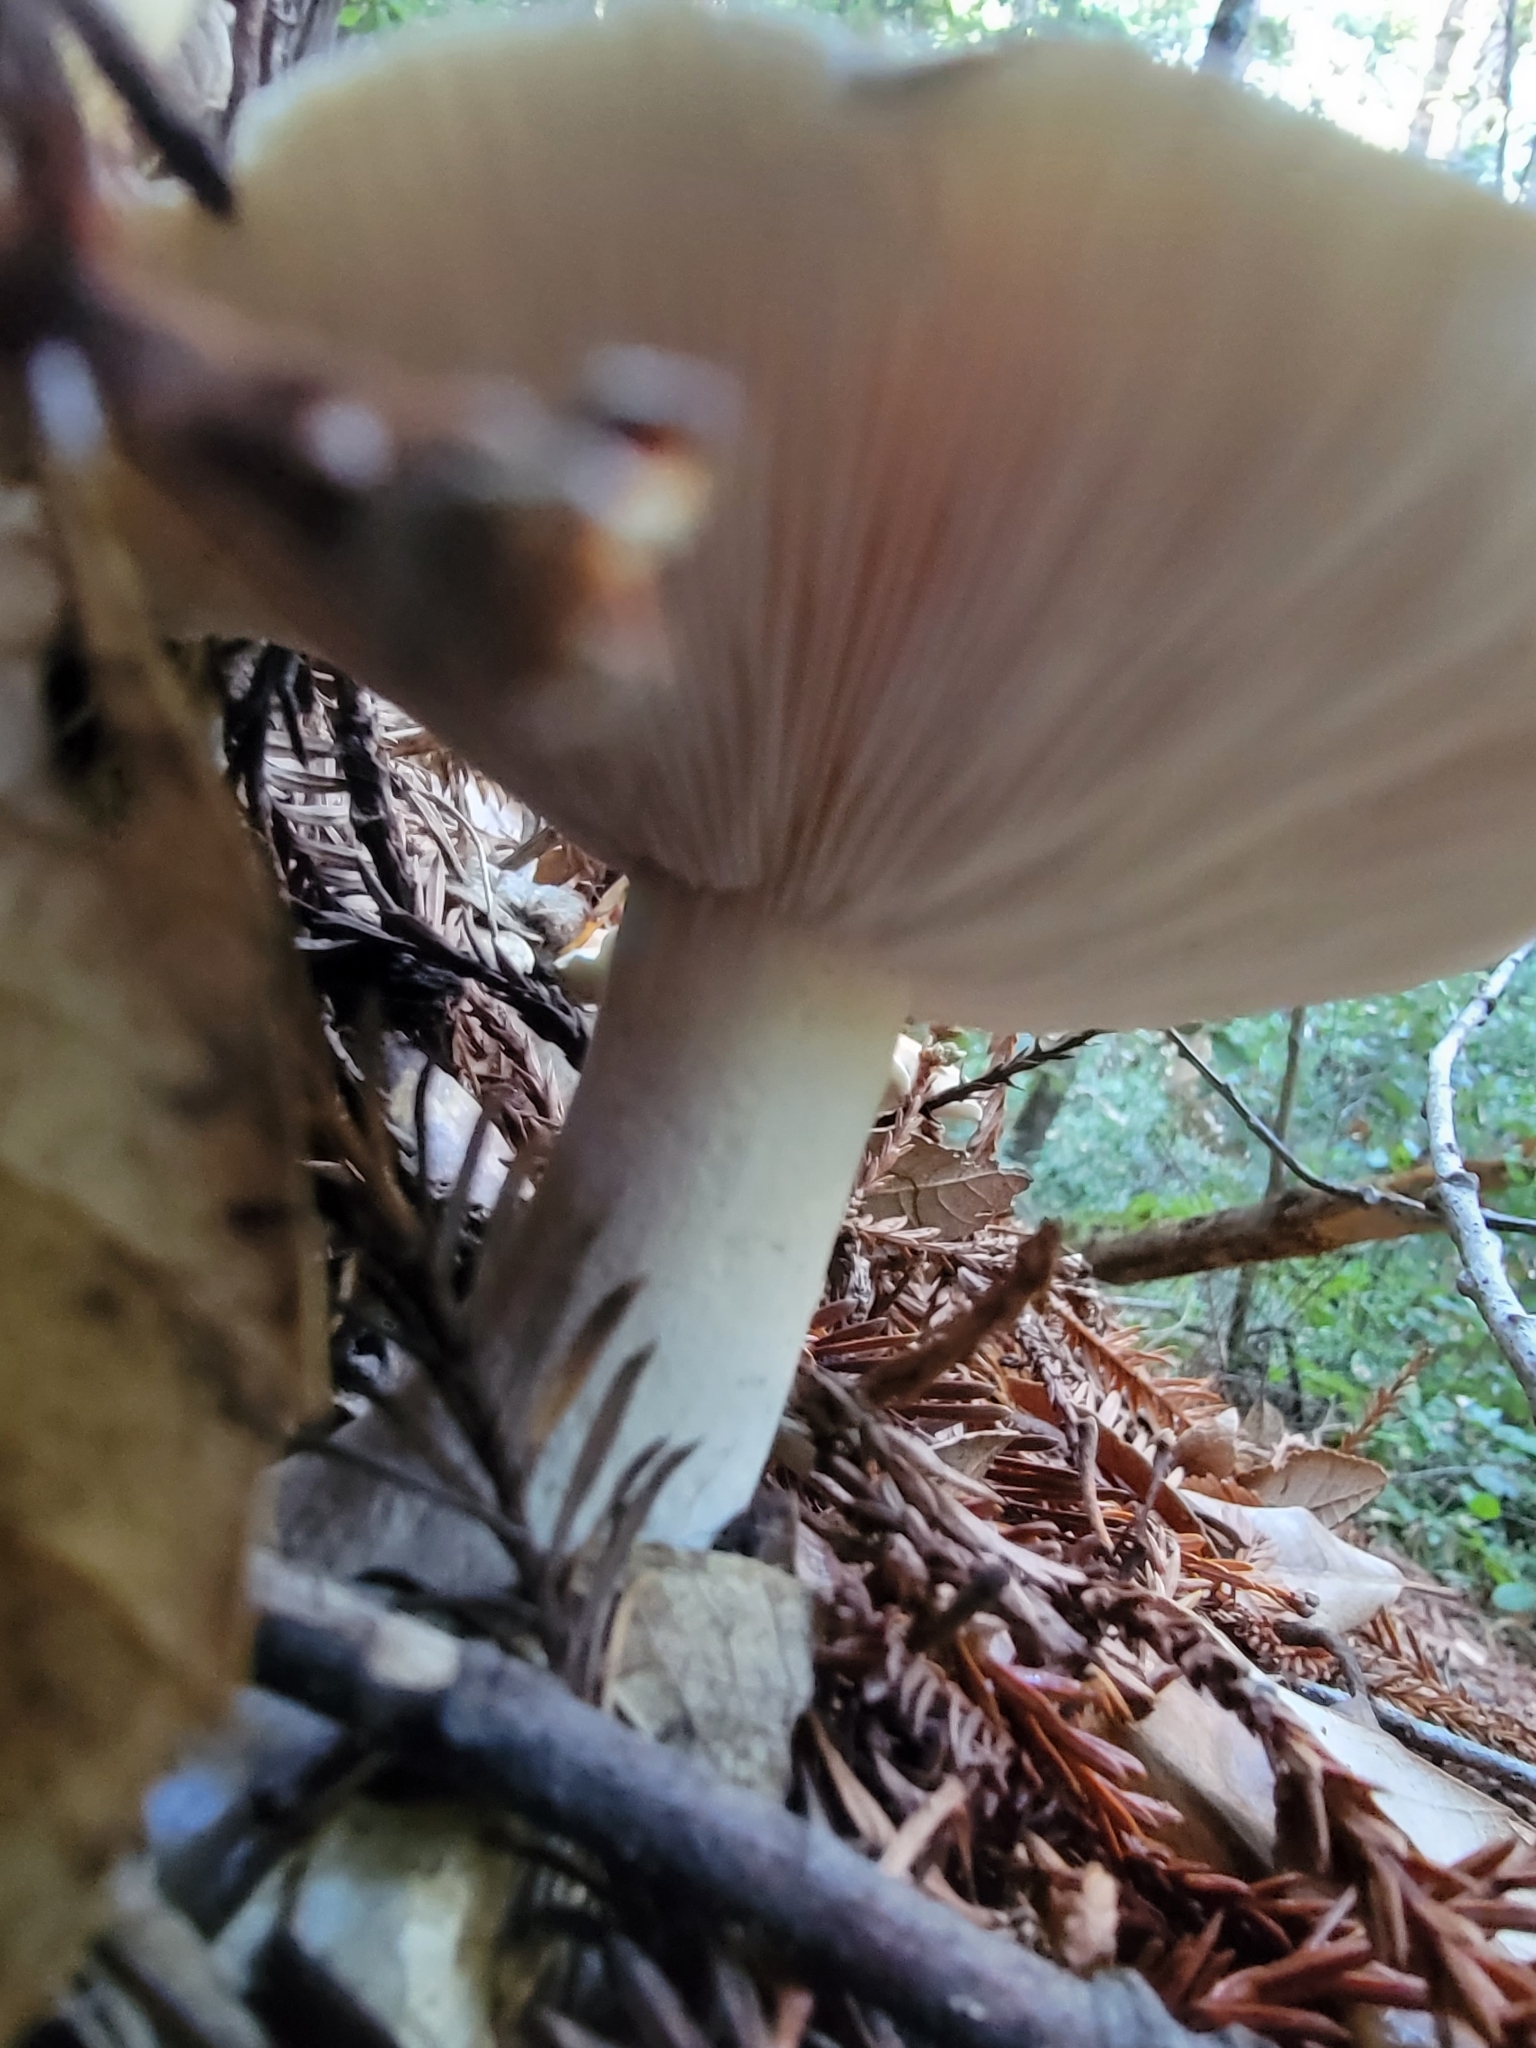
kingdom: Fungi
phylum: Basidiomycota
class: Agaricomycetes
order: Agaricales
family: Tricholomataceae
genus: Leucopaxillus
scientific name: Leucopaxillus gentianeus
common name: Bitter funnel
